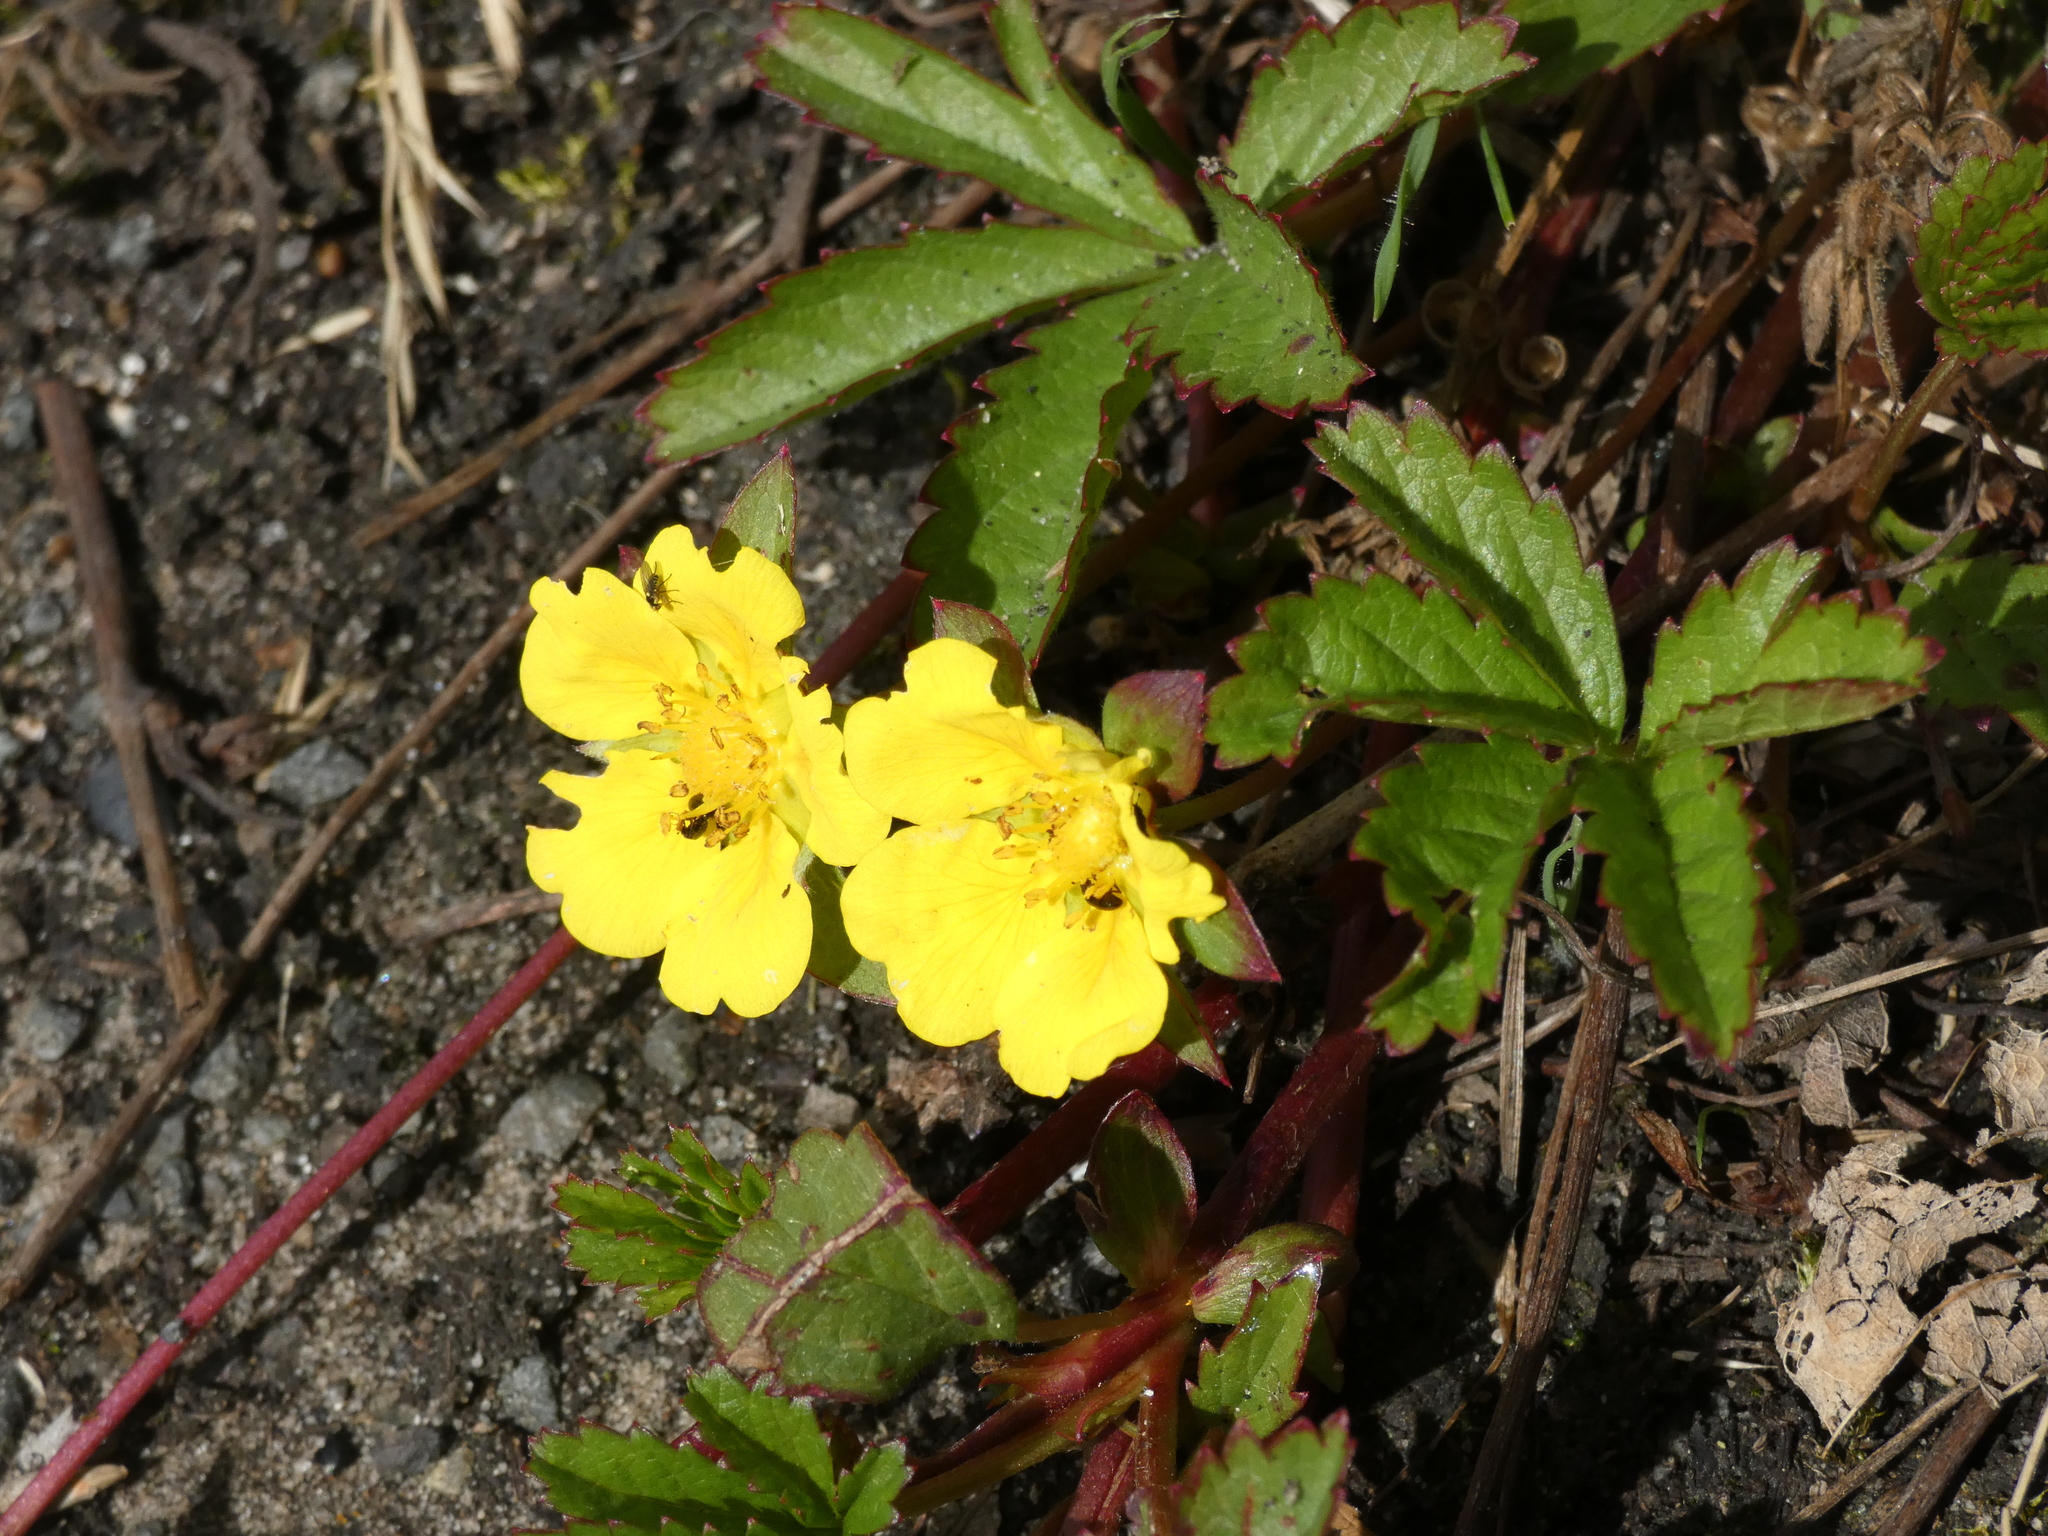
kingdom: Plantae
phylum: Tracheophyta
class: Magnoliopsida
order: Rosales
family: Rosaceae
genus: Potentilla
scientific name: Potentilla reptans
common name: Creeping cinquefoil
